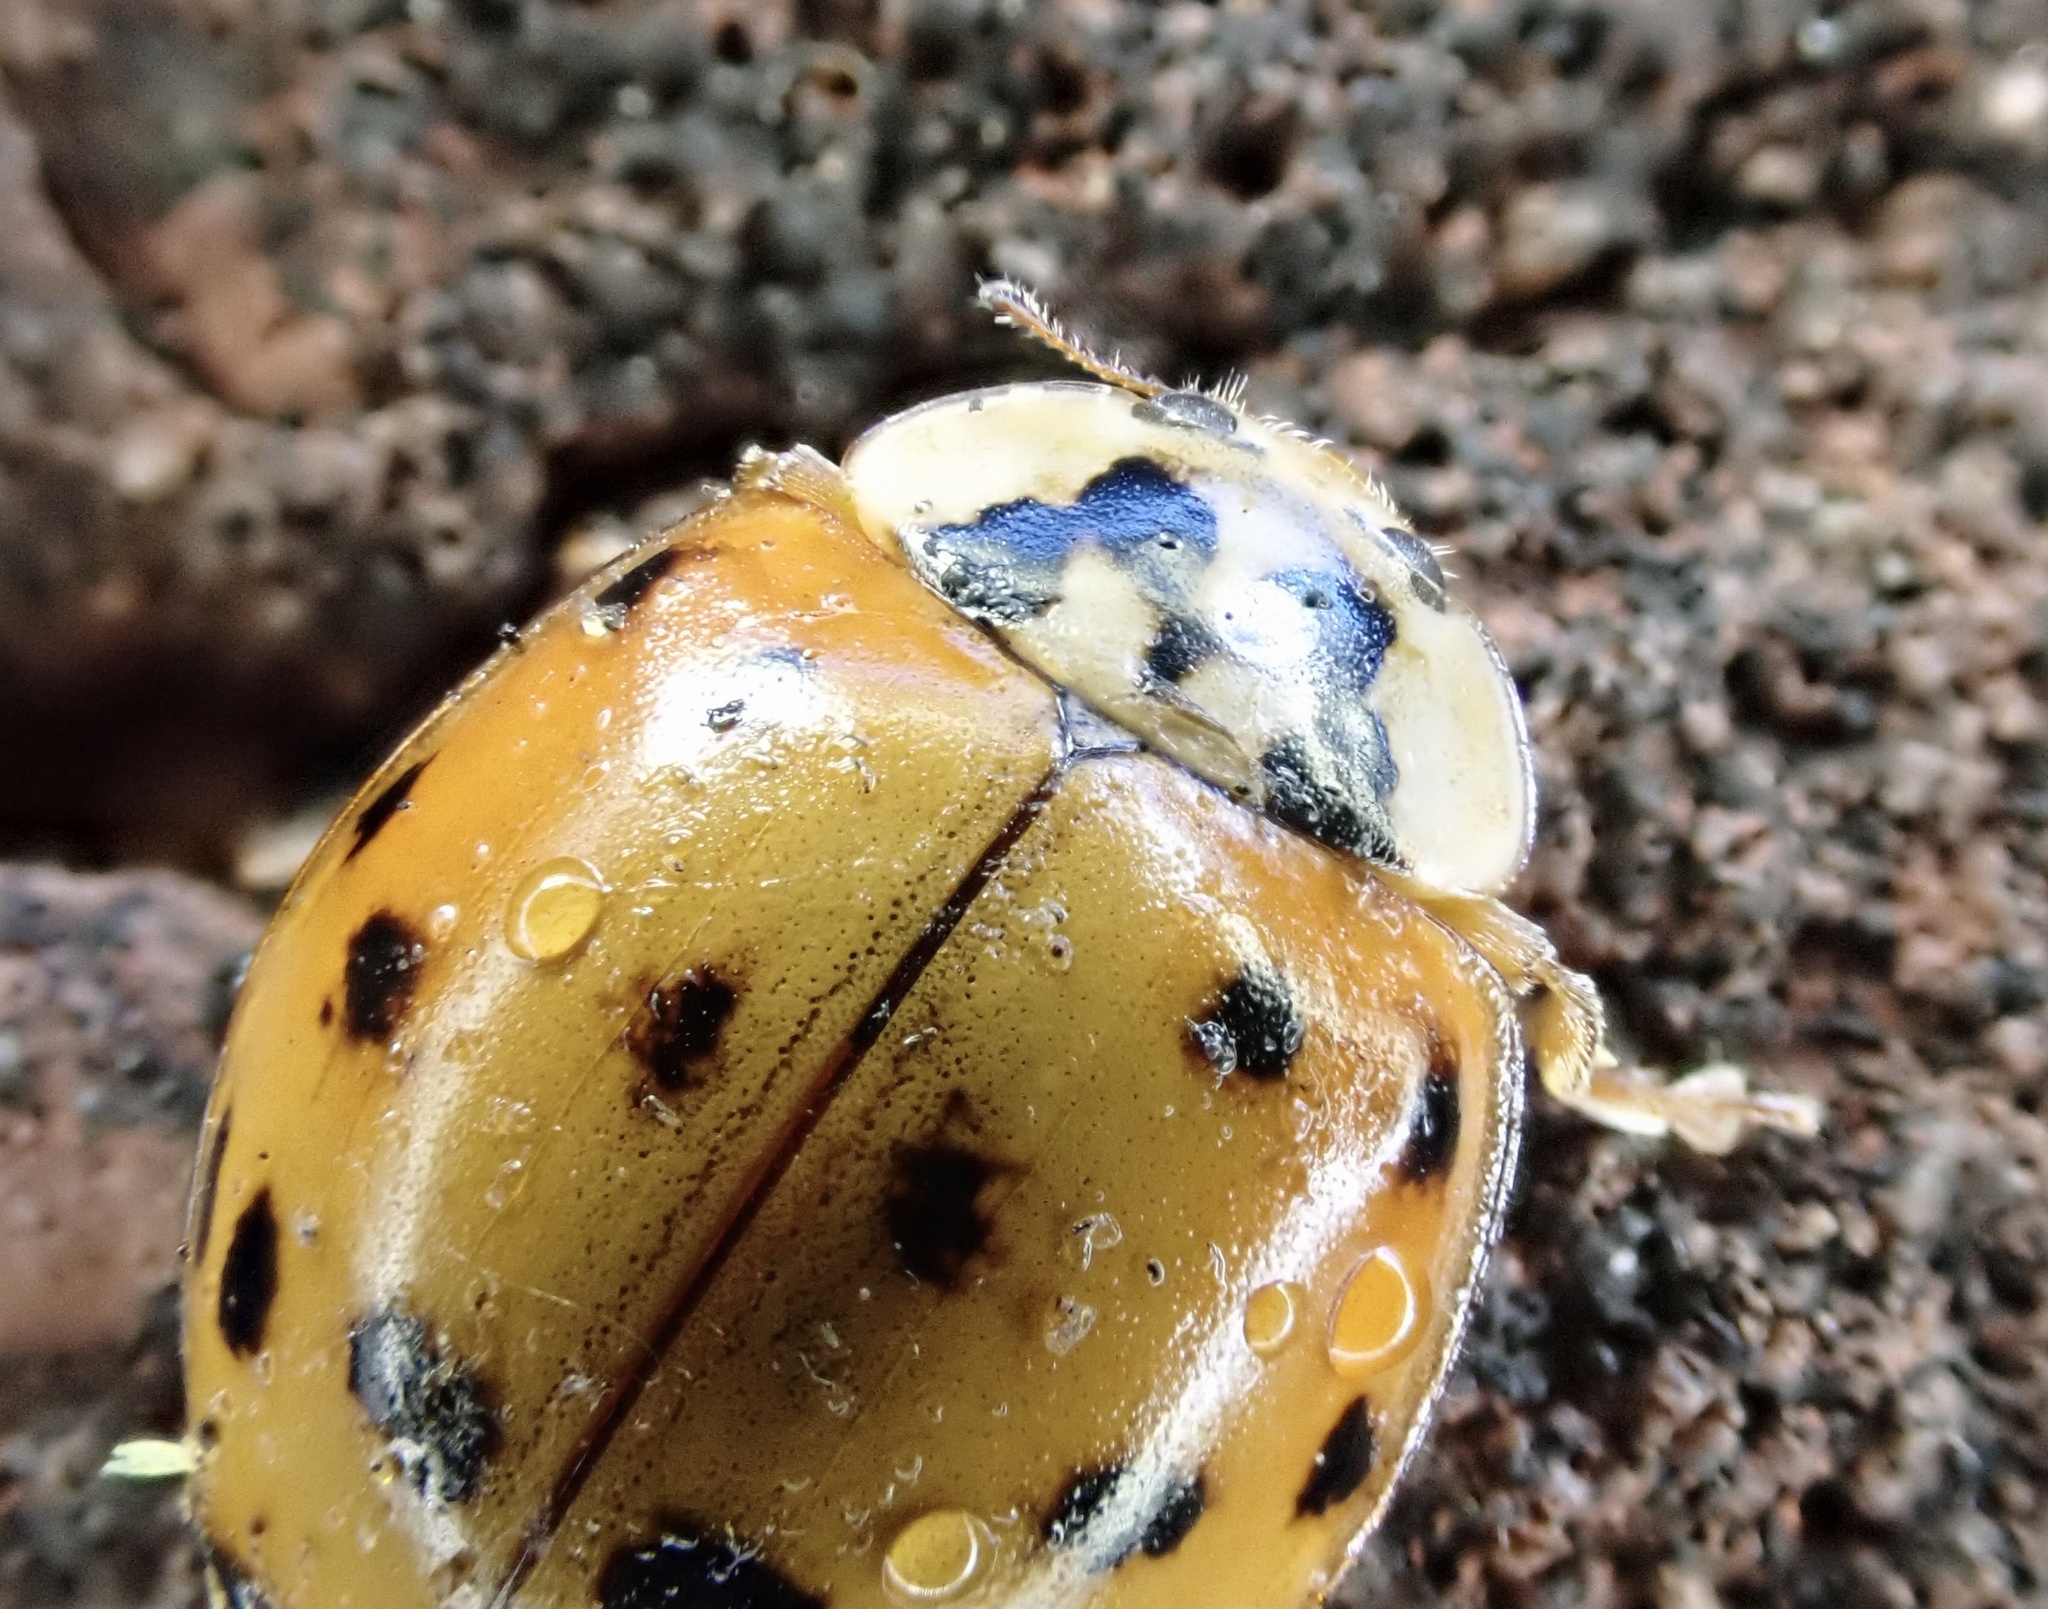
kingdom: Animalia
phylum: Arthropoda
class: Insecta
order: Coleoptera
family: Coccinellidae
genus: Harmonia
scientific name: Harmonia axyridis
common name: Harlequin ladybird
